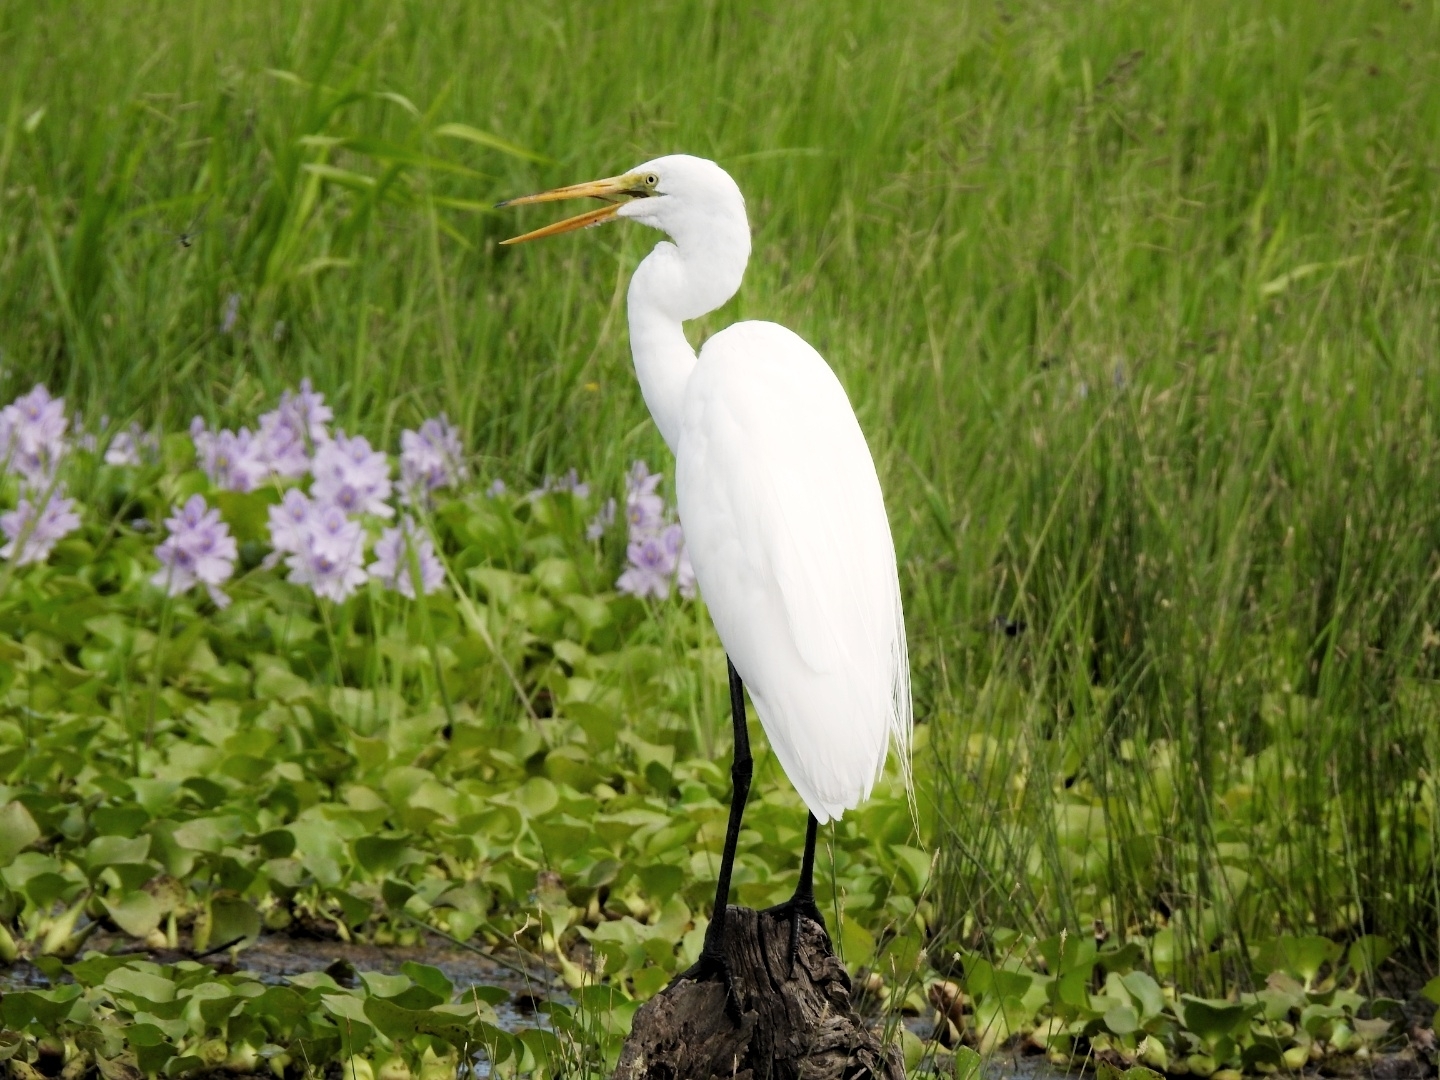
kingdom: Animalia
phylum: Chordata
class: Aves
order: Pelecaniformes
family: Ardeidae
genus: Ardea
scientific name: Ardea alba
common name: Great egret
